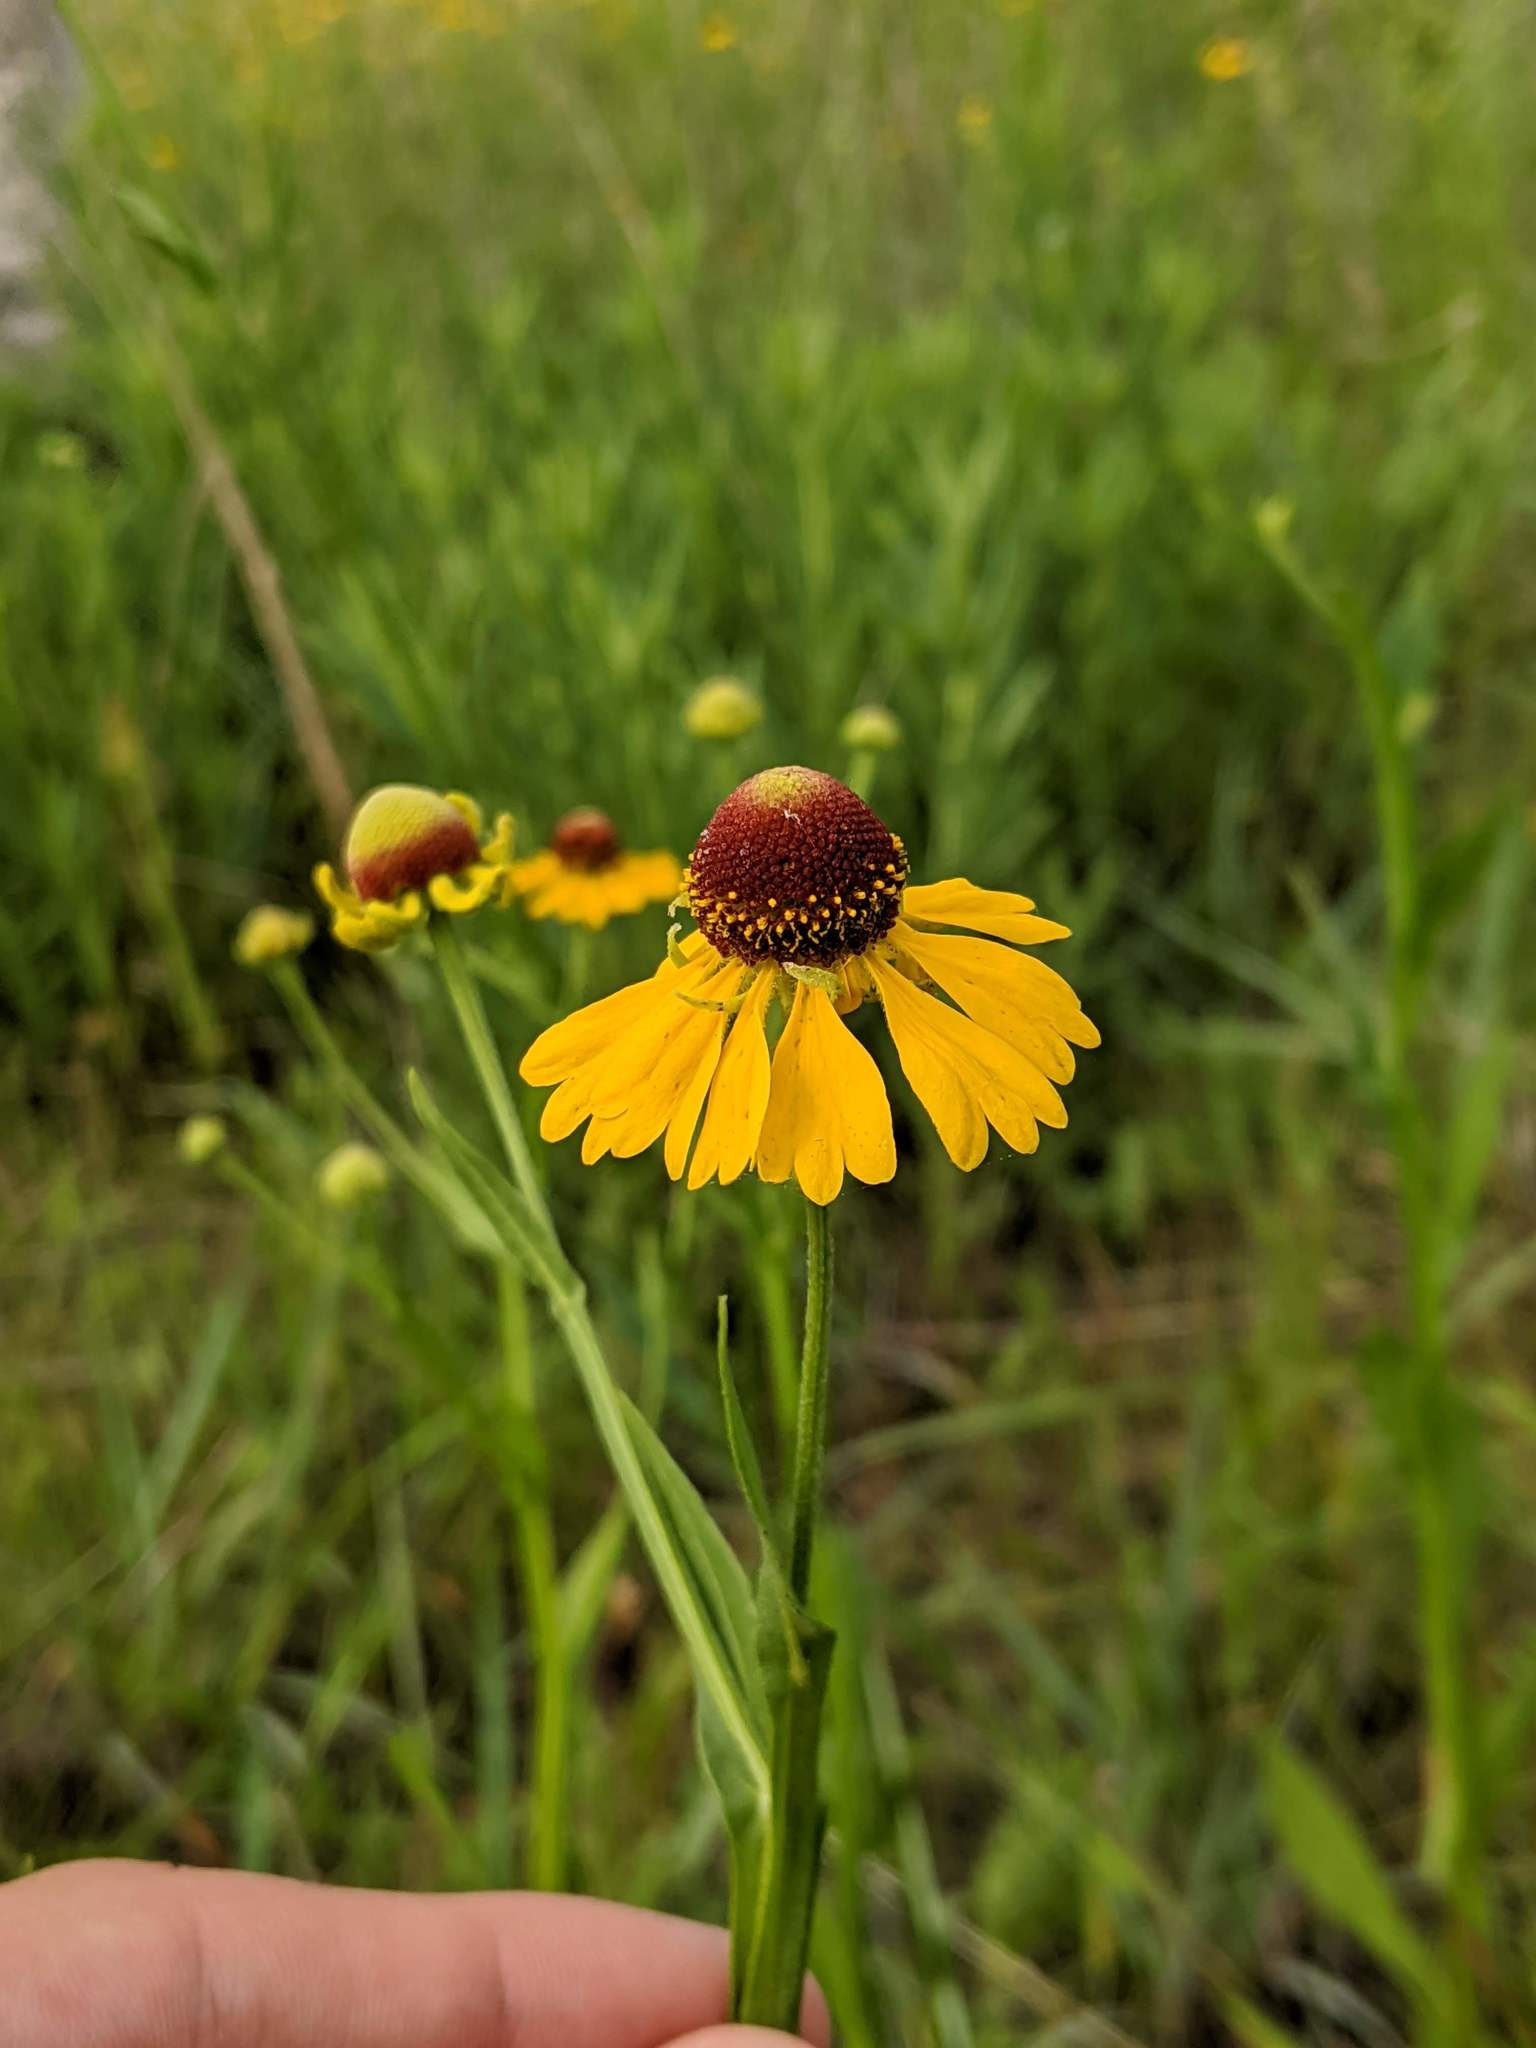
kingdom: Plantae
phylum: Tracheophyta
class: Magnoliopsida
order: Asterales
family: Asteraceae
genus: Helenium
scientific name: Helenium flexuosum
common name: Naked-flowered sneezeweed
